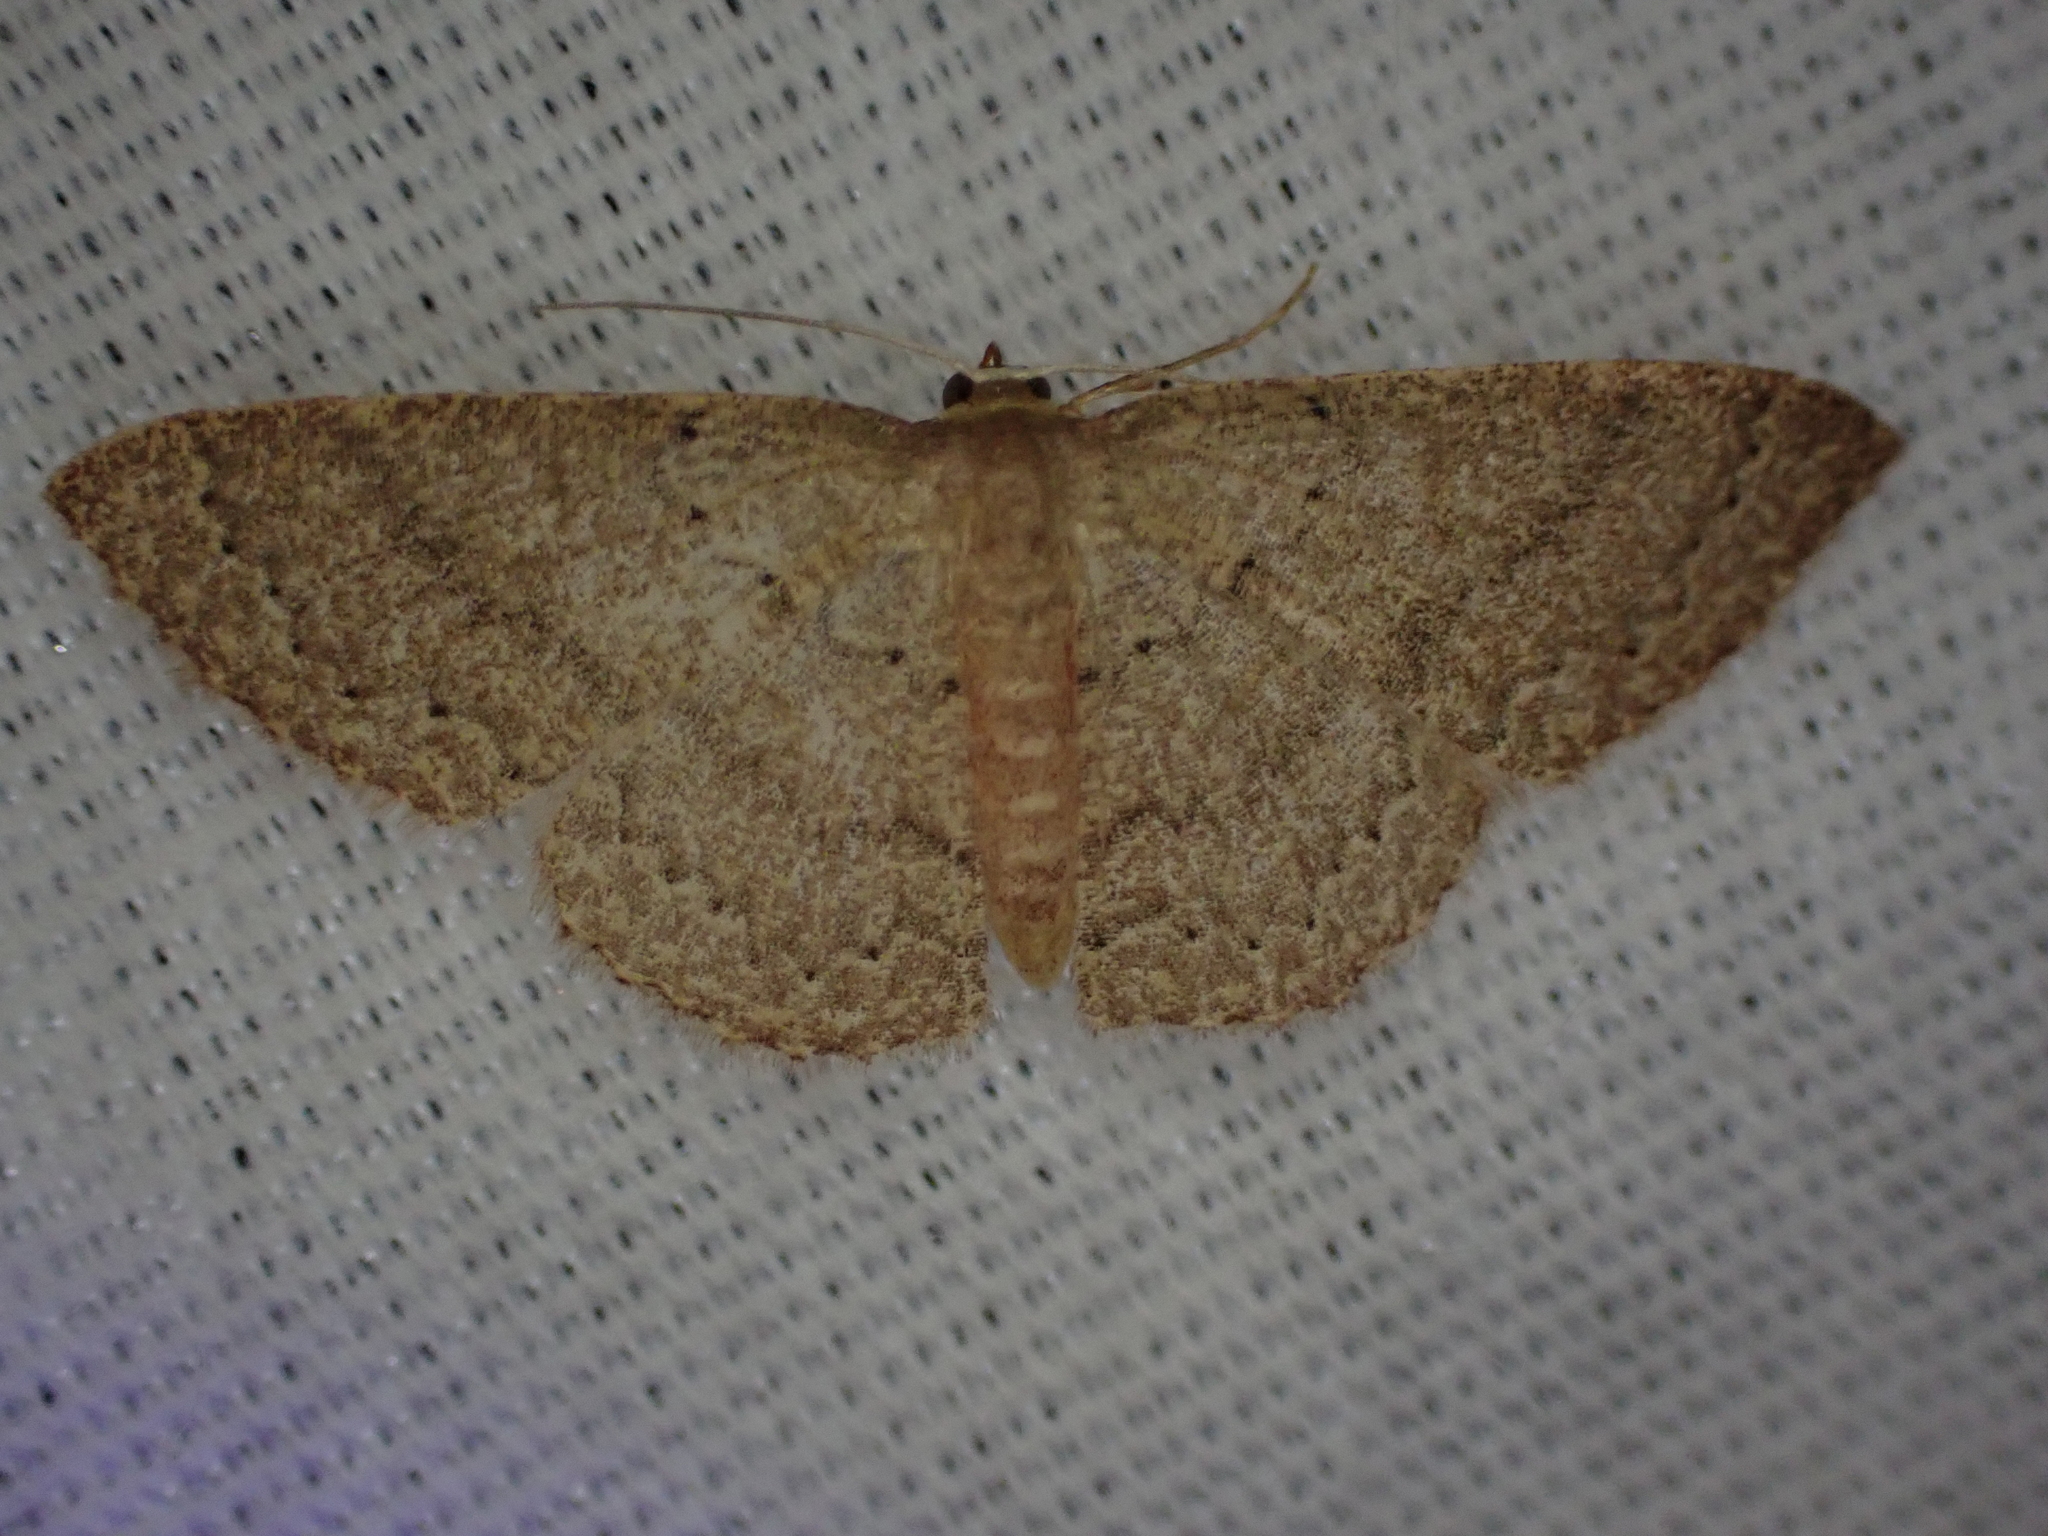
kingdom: Animalia
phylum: Arthropoda
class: Insecta
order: Lepidoptera
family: Geometridae
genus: Pleuroprucha
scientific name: Pleuroprucha insulsaria
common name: Common tan wave
